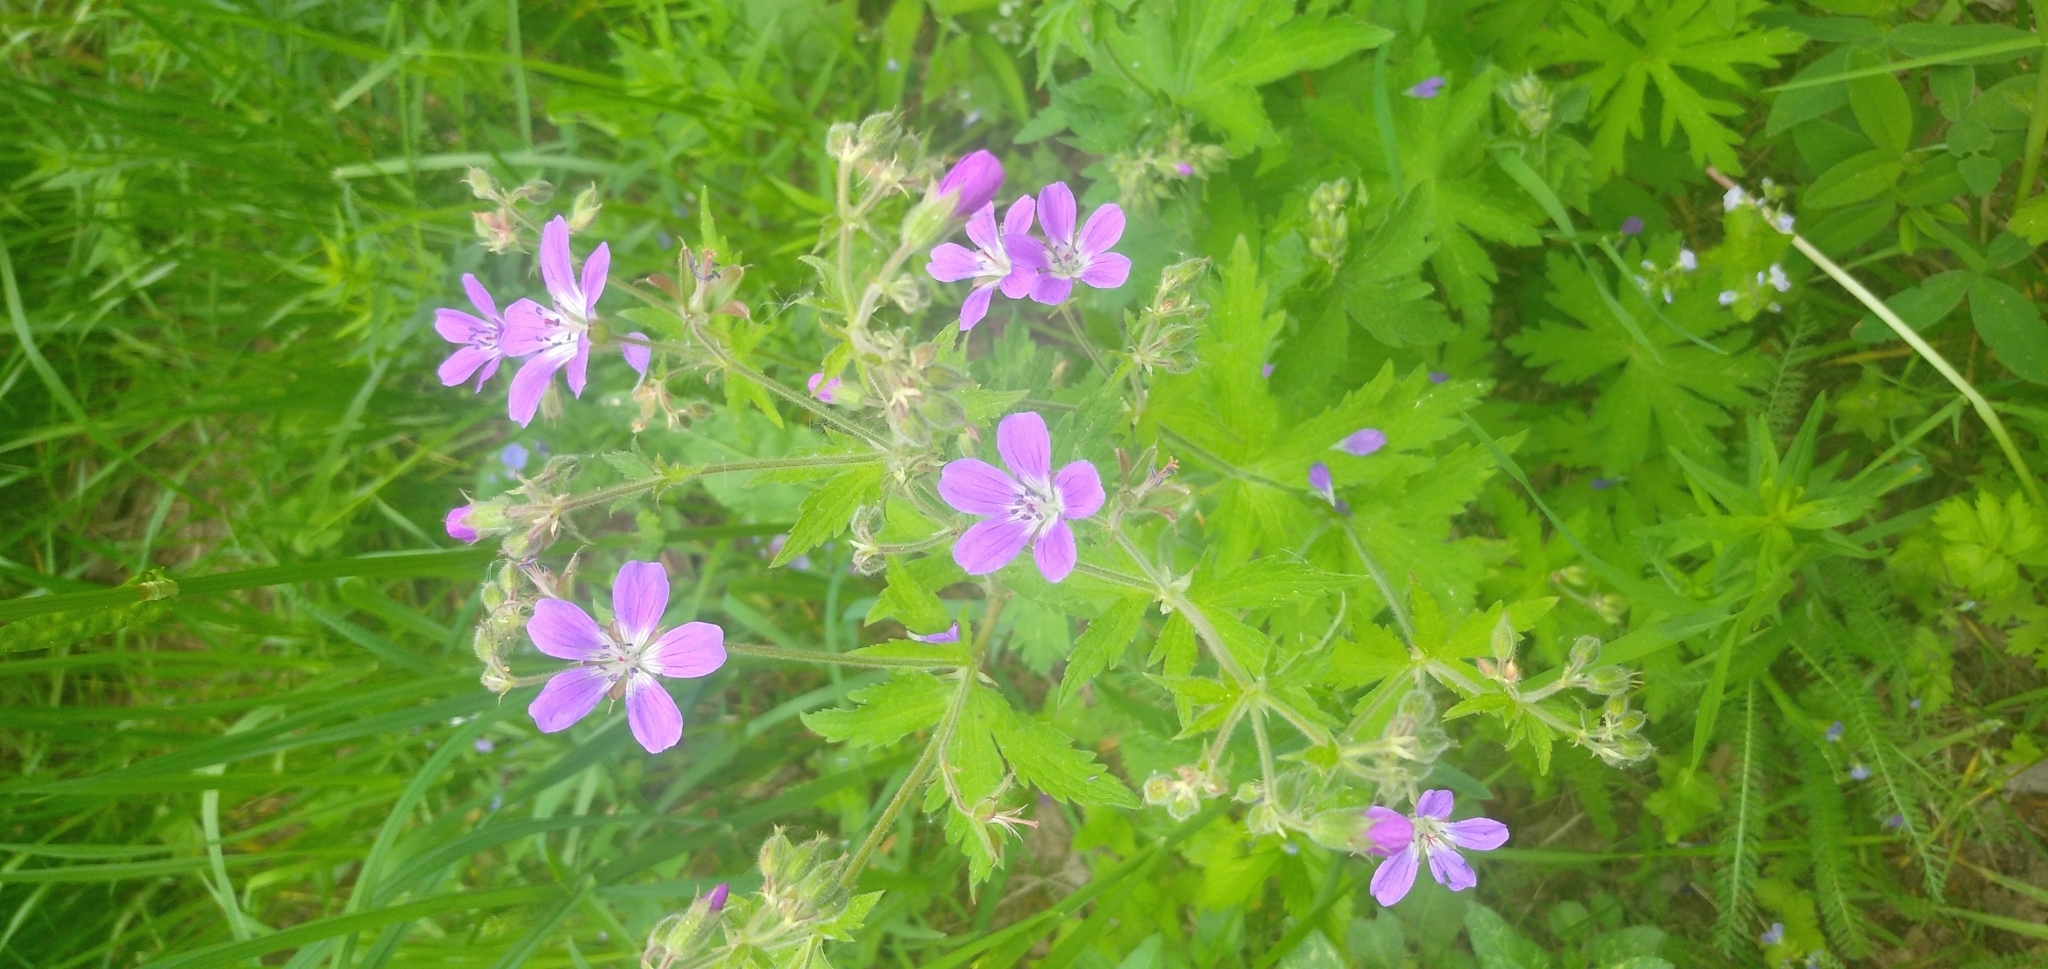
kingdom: Plantae
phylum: Tracheophyta
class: Magnoliopsida
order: Geraniales
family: Geraniaceae
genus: Geranium
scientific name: Geranium sylvaticum
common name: Wood crane's-bill
